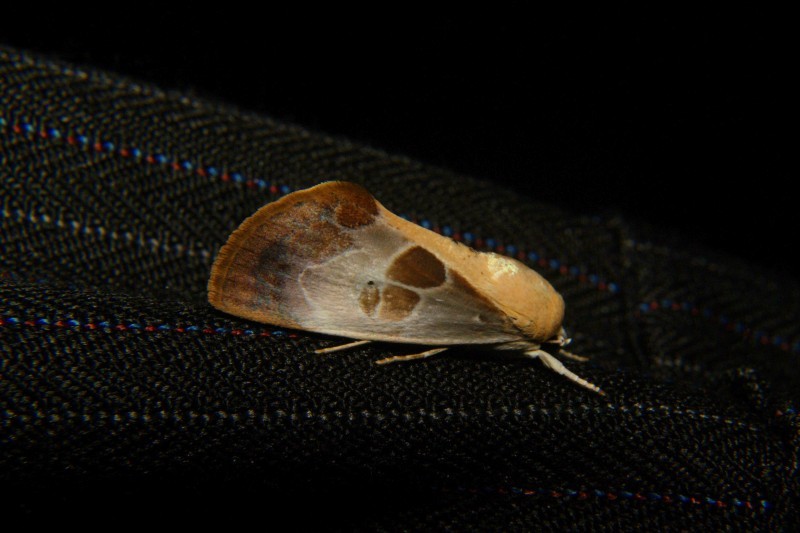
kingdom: Animalia
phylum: Arthropoda
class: Insecta
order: Lepidoptera
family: Nolidae
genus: Westermannia
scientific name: Westermannia superba
